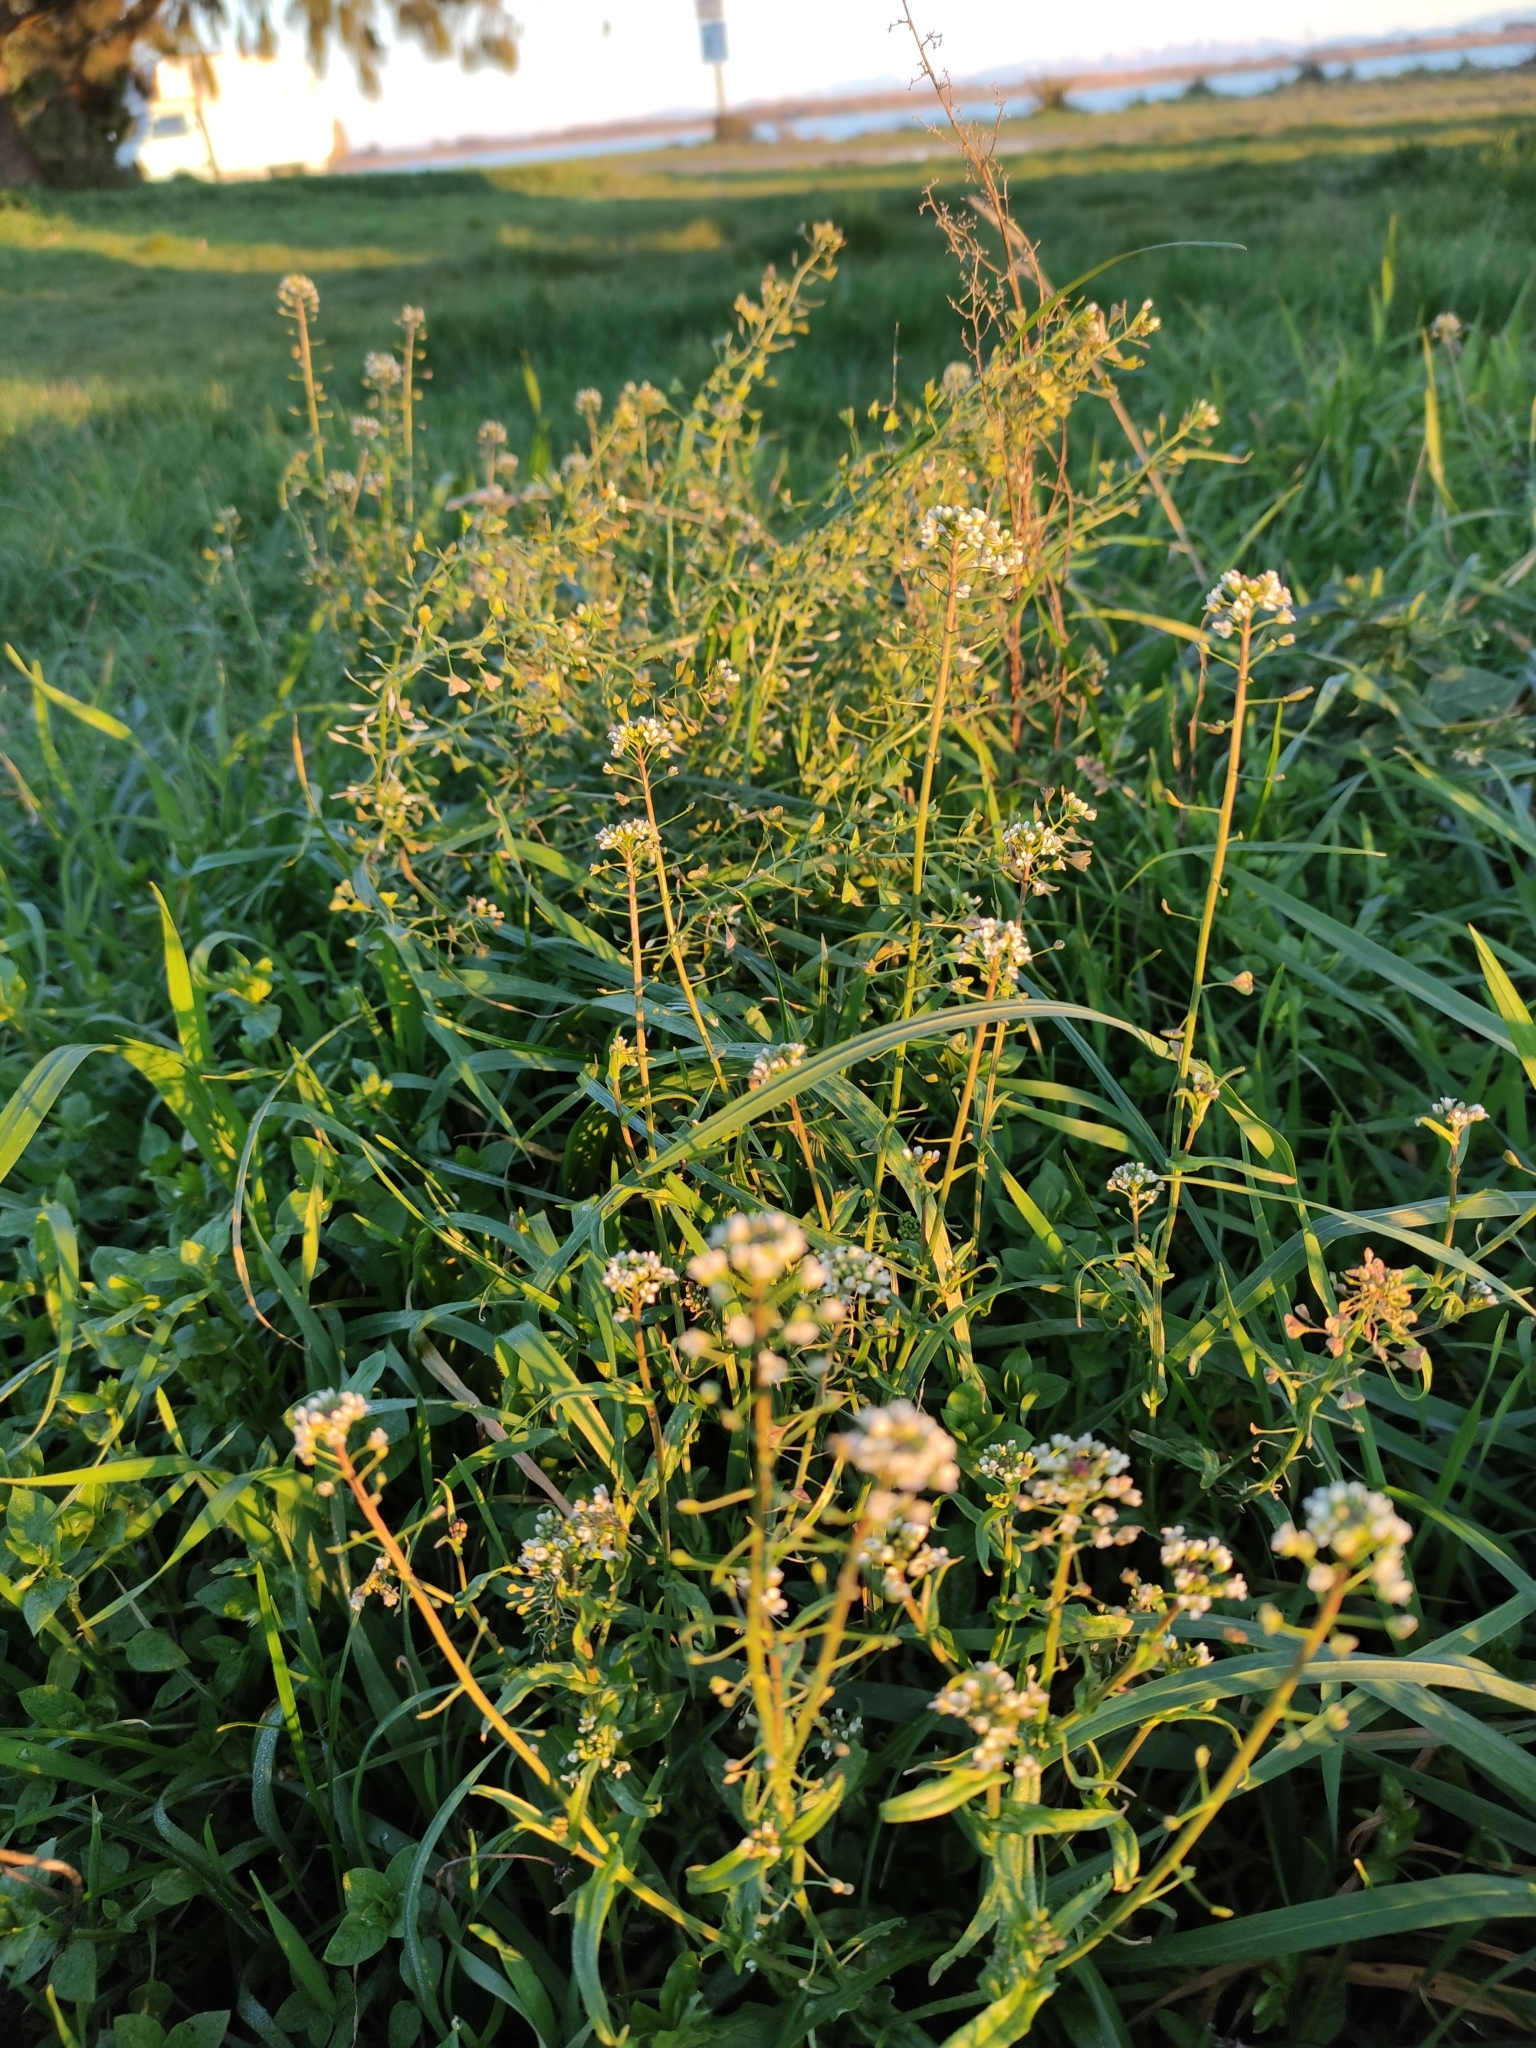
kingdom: Plantae
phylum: Tracheophyta
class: Magnoliopsida
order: Brassicales
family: Brassicaceae
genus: Capsella
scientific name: Capsella bursa-pastoris
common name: Shepherd's purse
